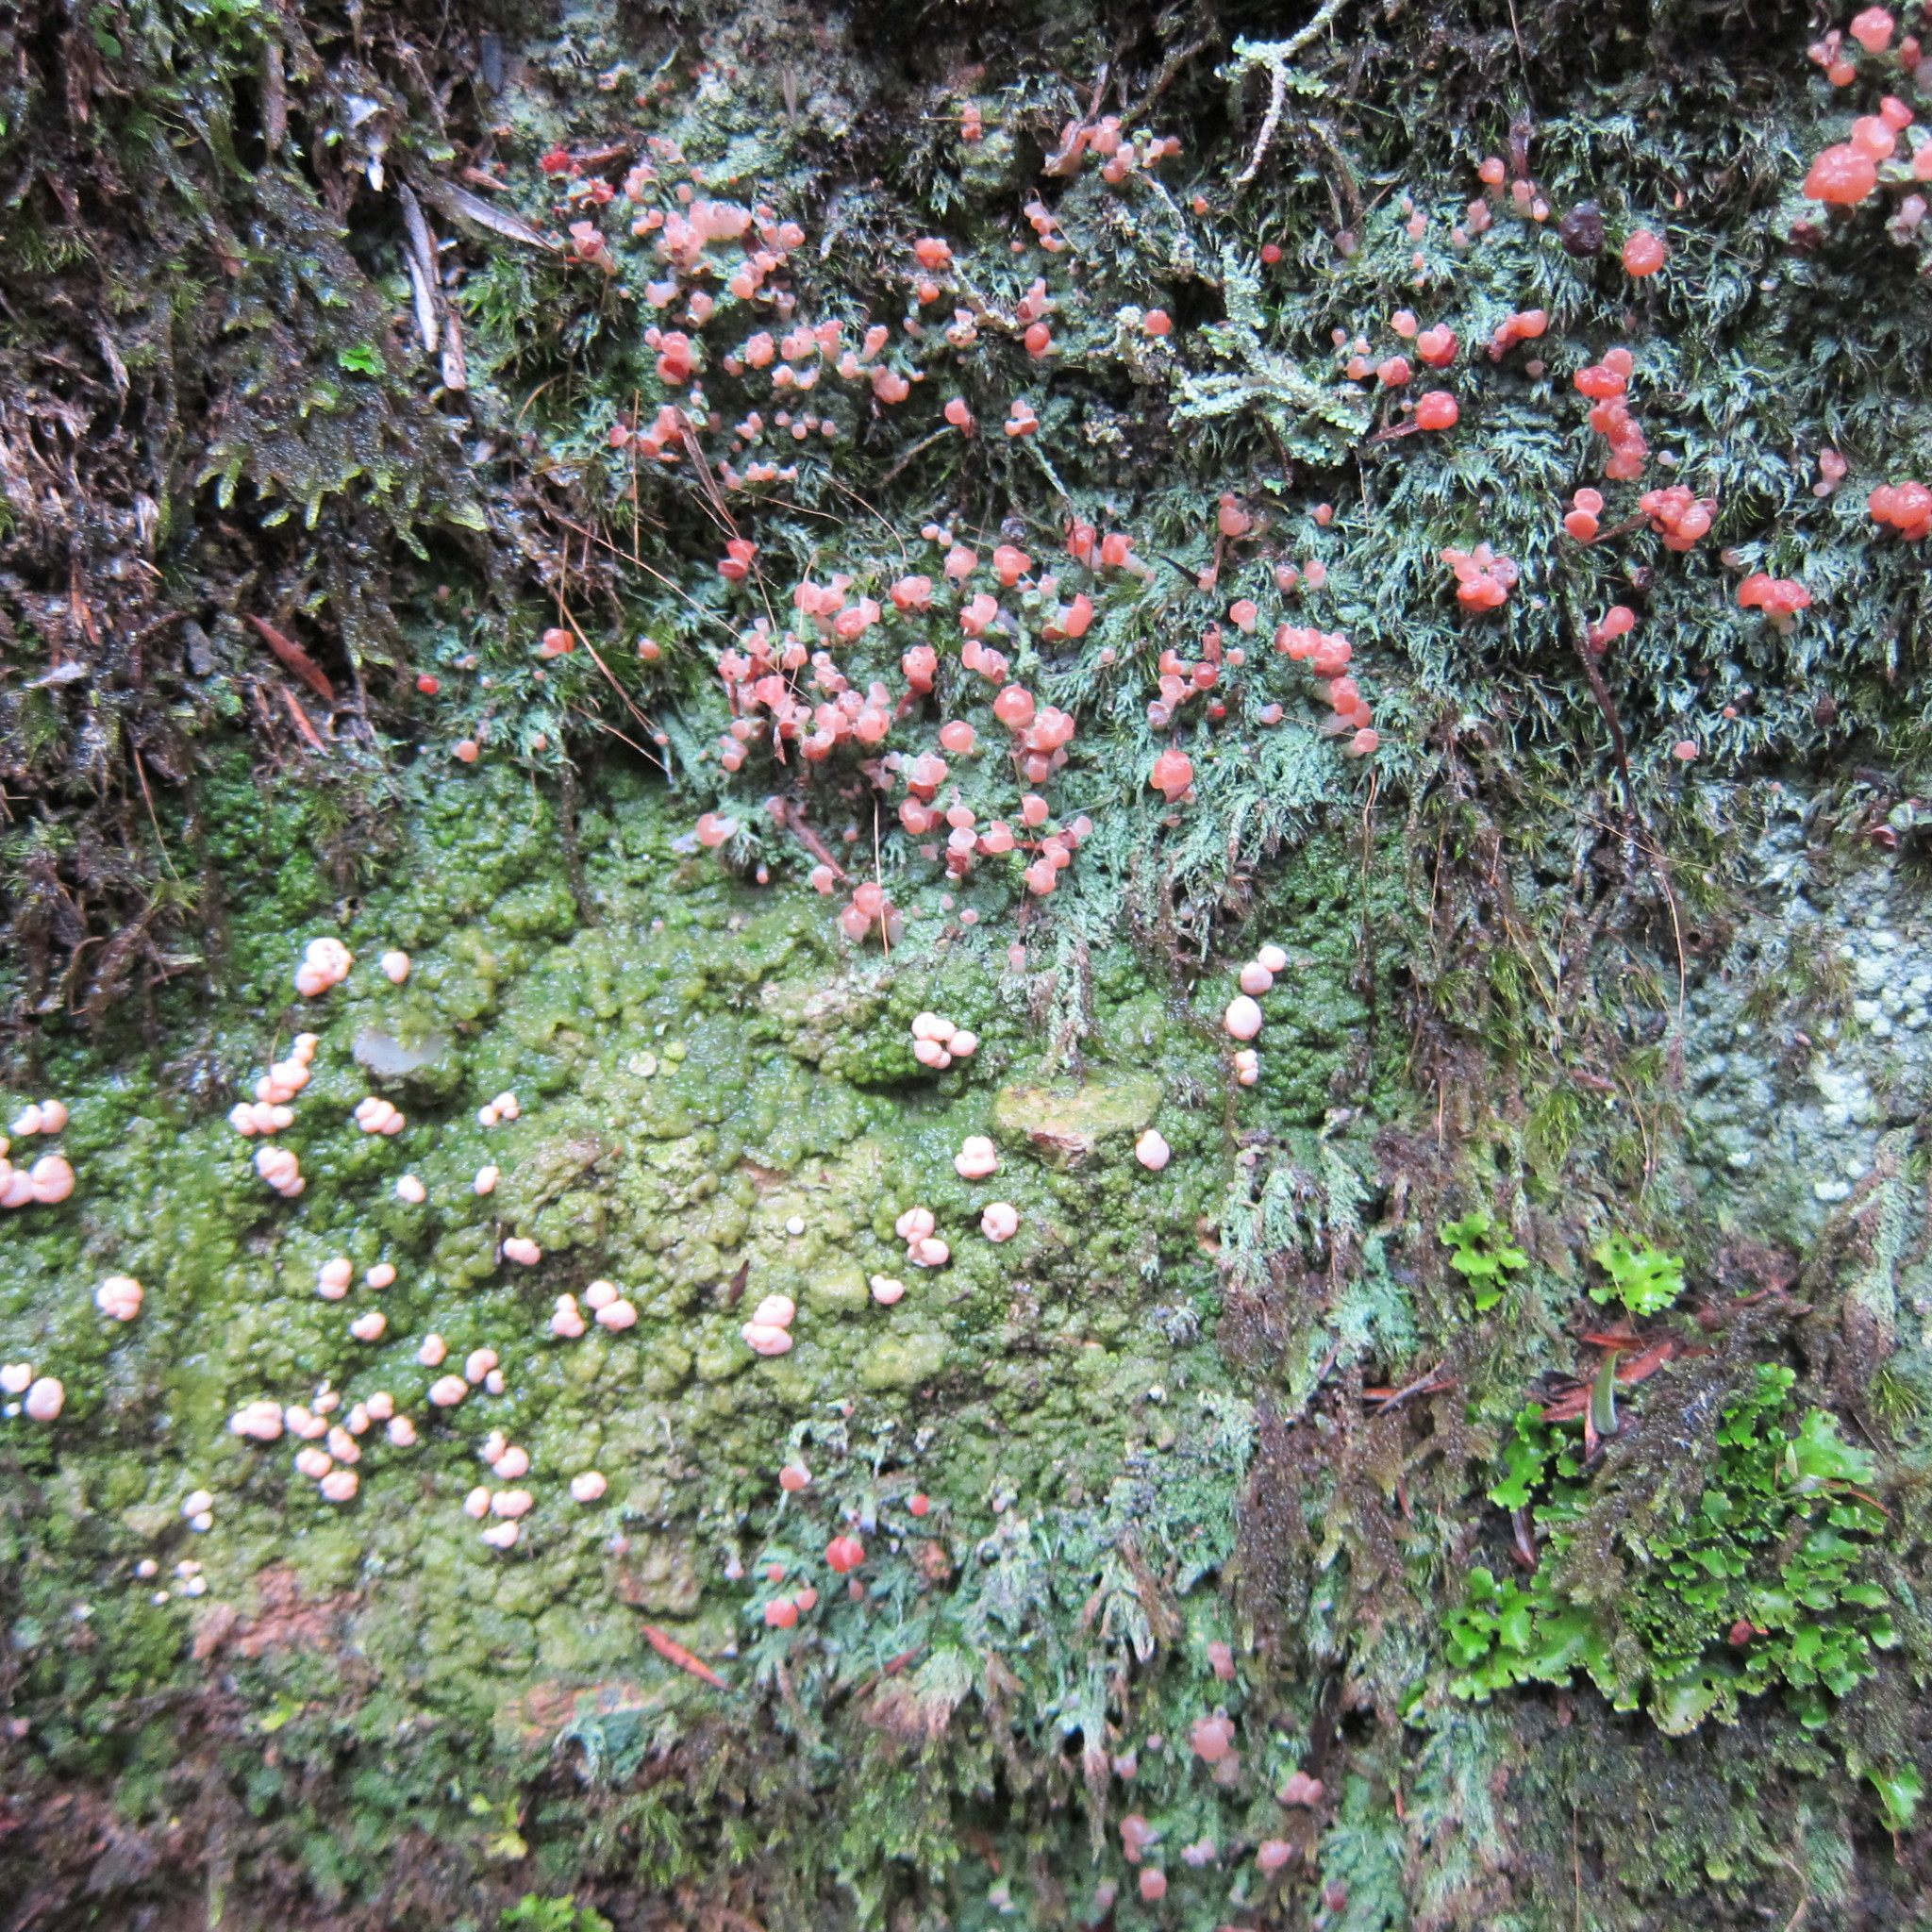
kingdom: Fungi
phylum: Ascomycota
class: Lecanoromycetes
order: Pertusariales
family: Icmadophilaceae
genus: Dibaeis
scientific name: Dibaeis absoluta
